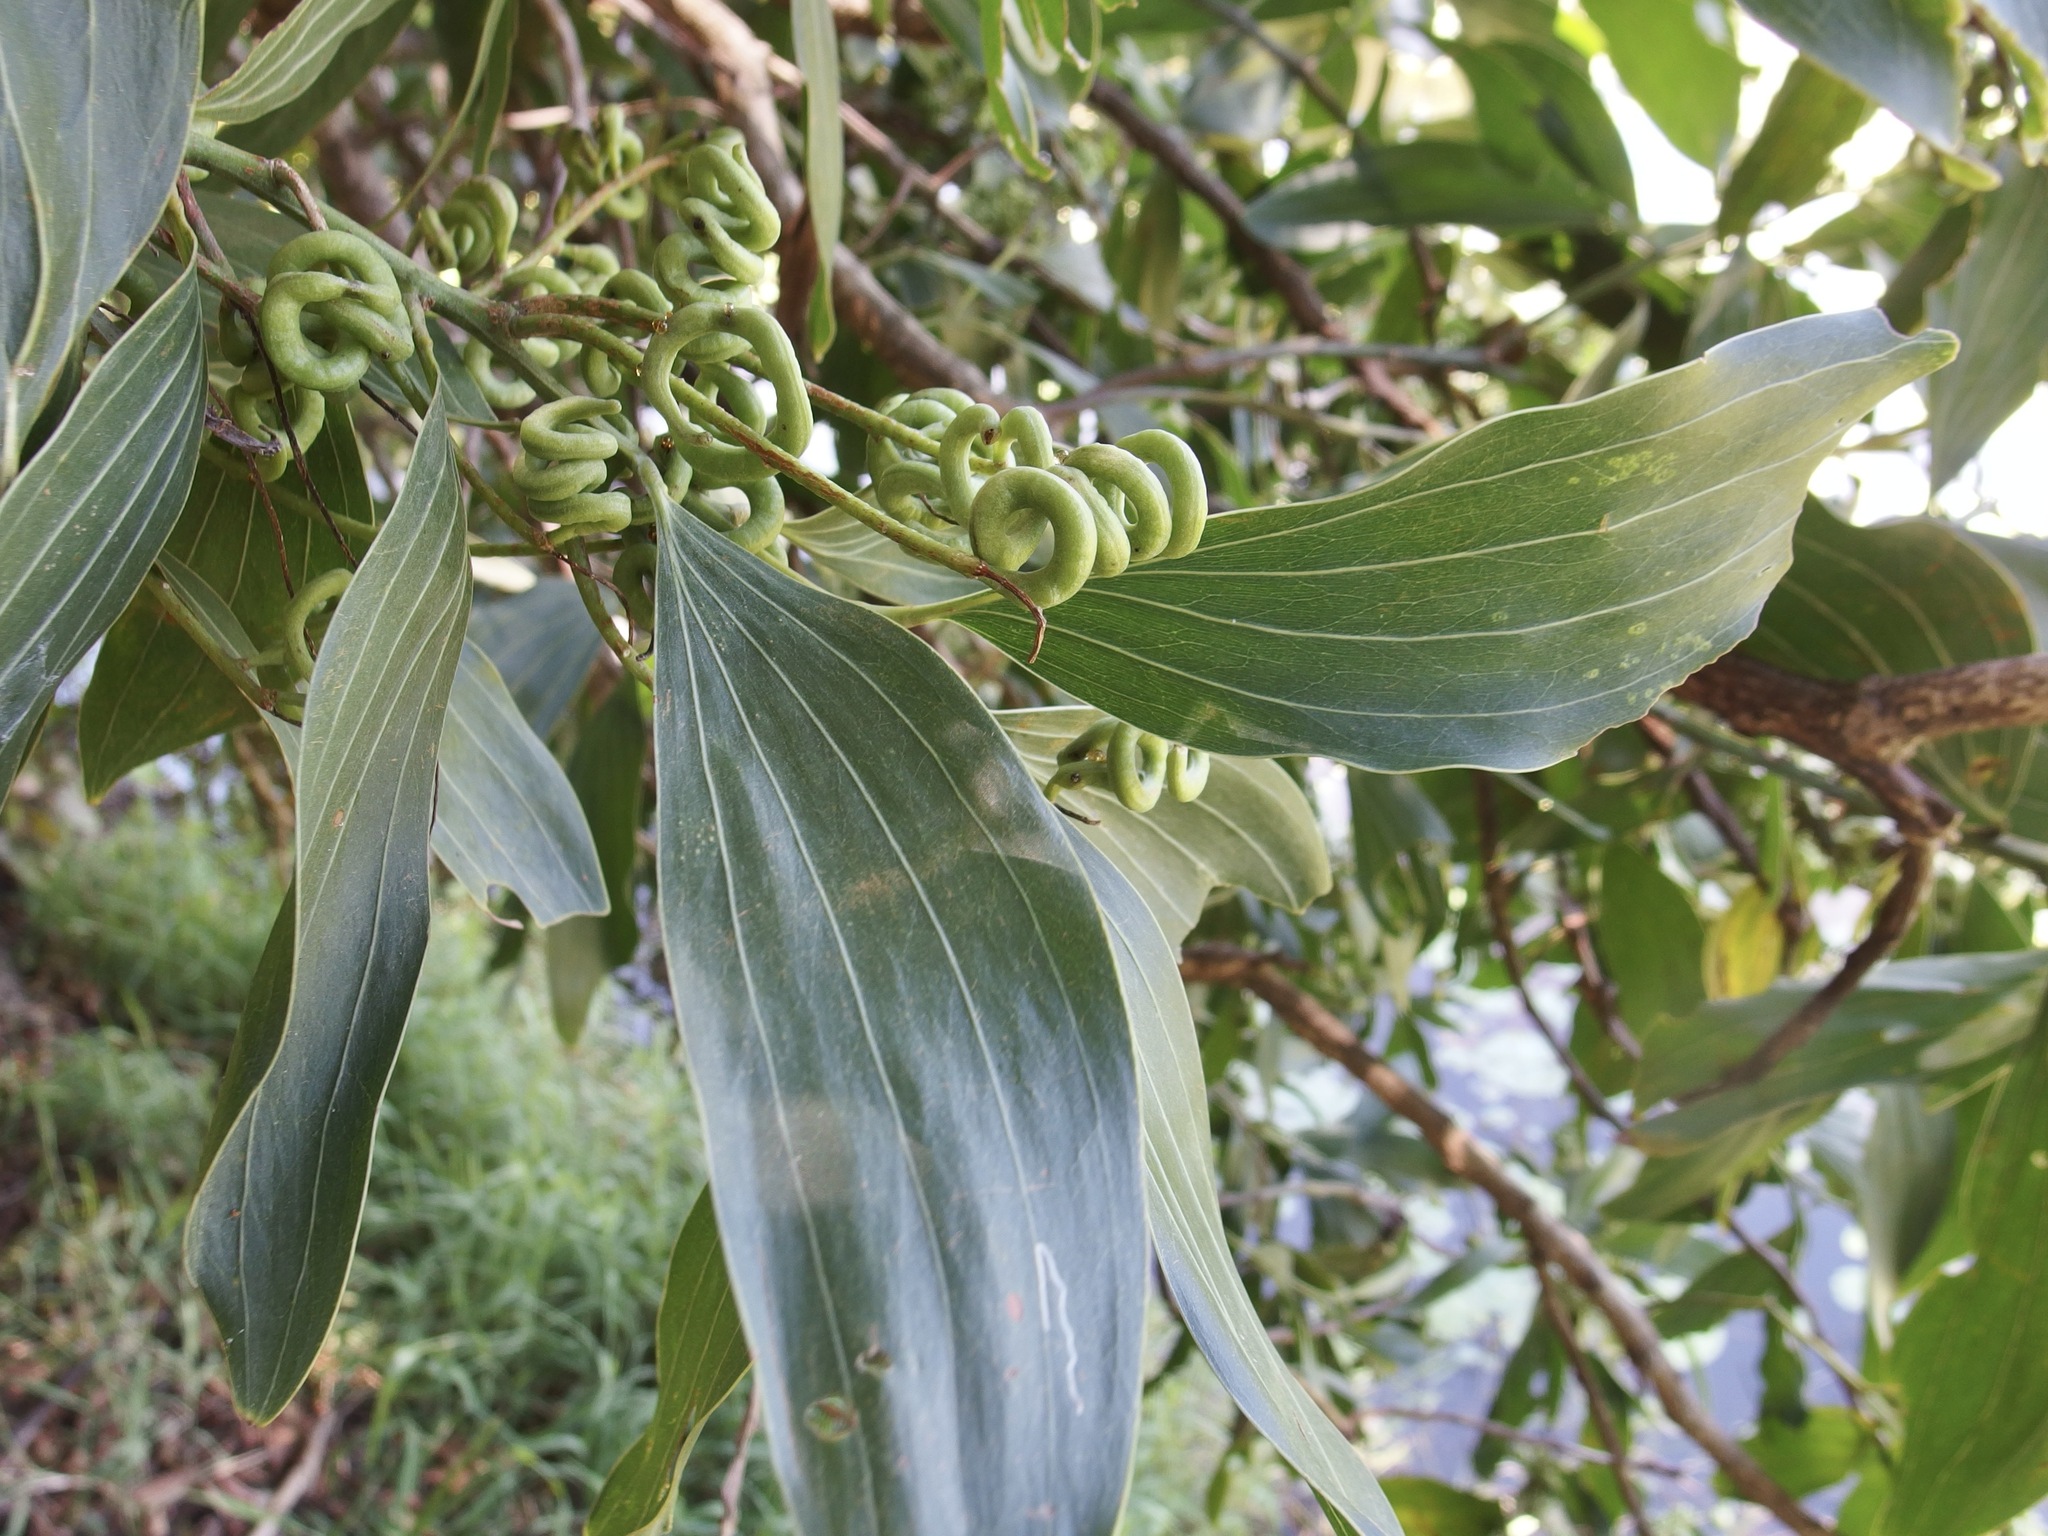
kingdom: Plantae
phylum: Tracheophyta
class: Magnoliopsida
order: Fabales
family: Fabaceae
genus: Acacia
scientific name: Acacia mangium
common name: Black wattle
